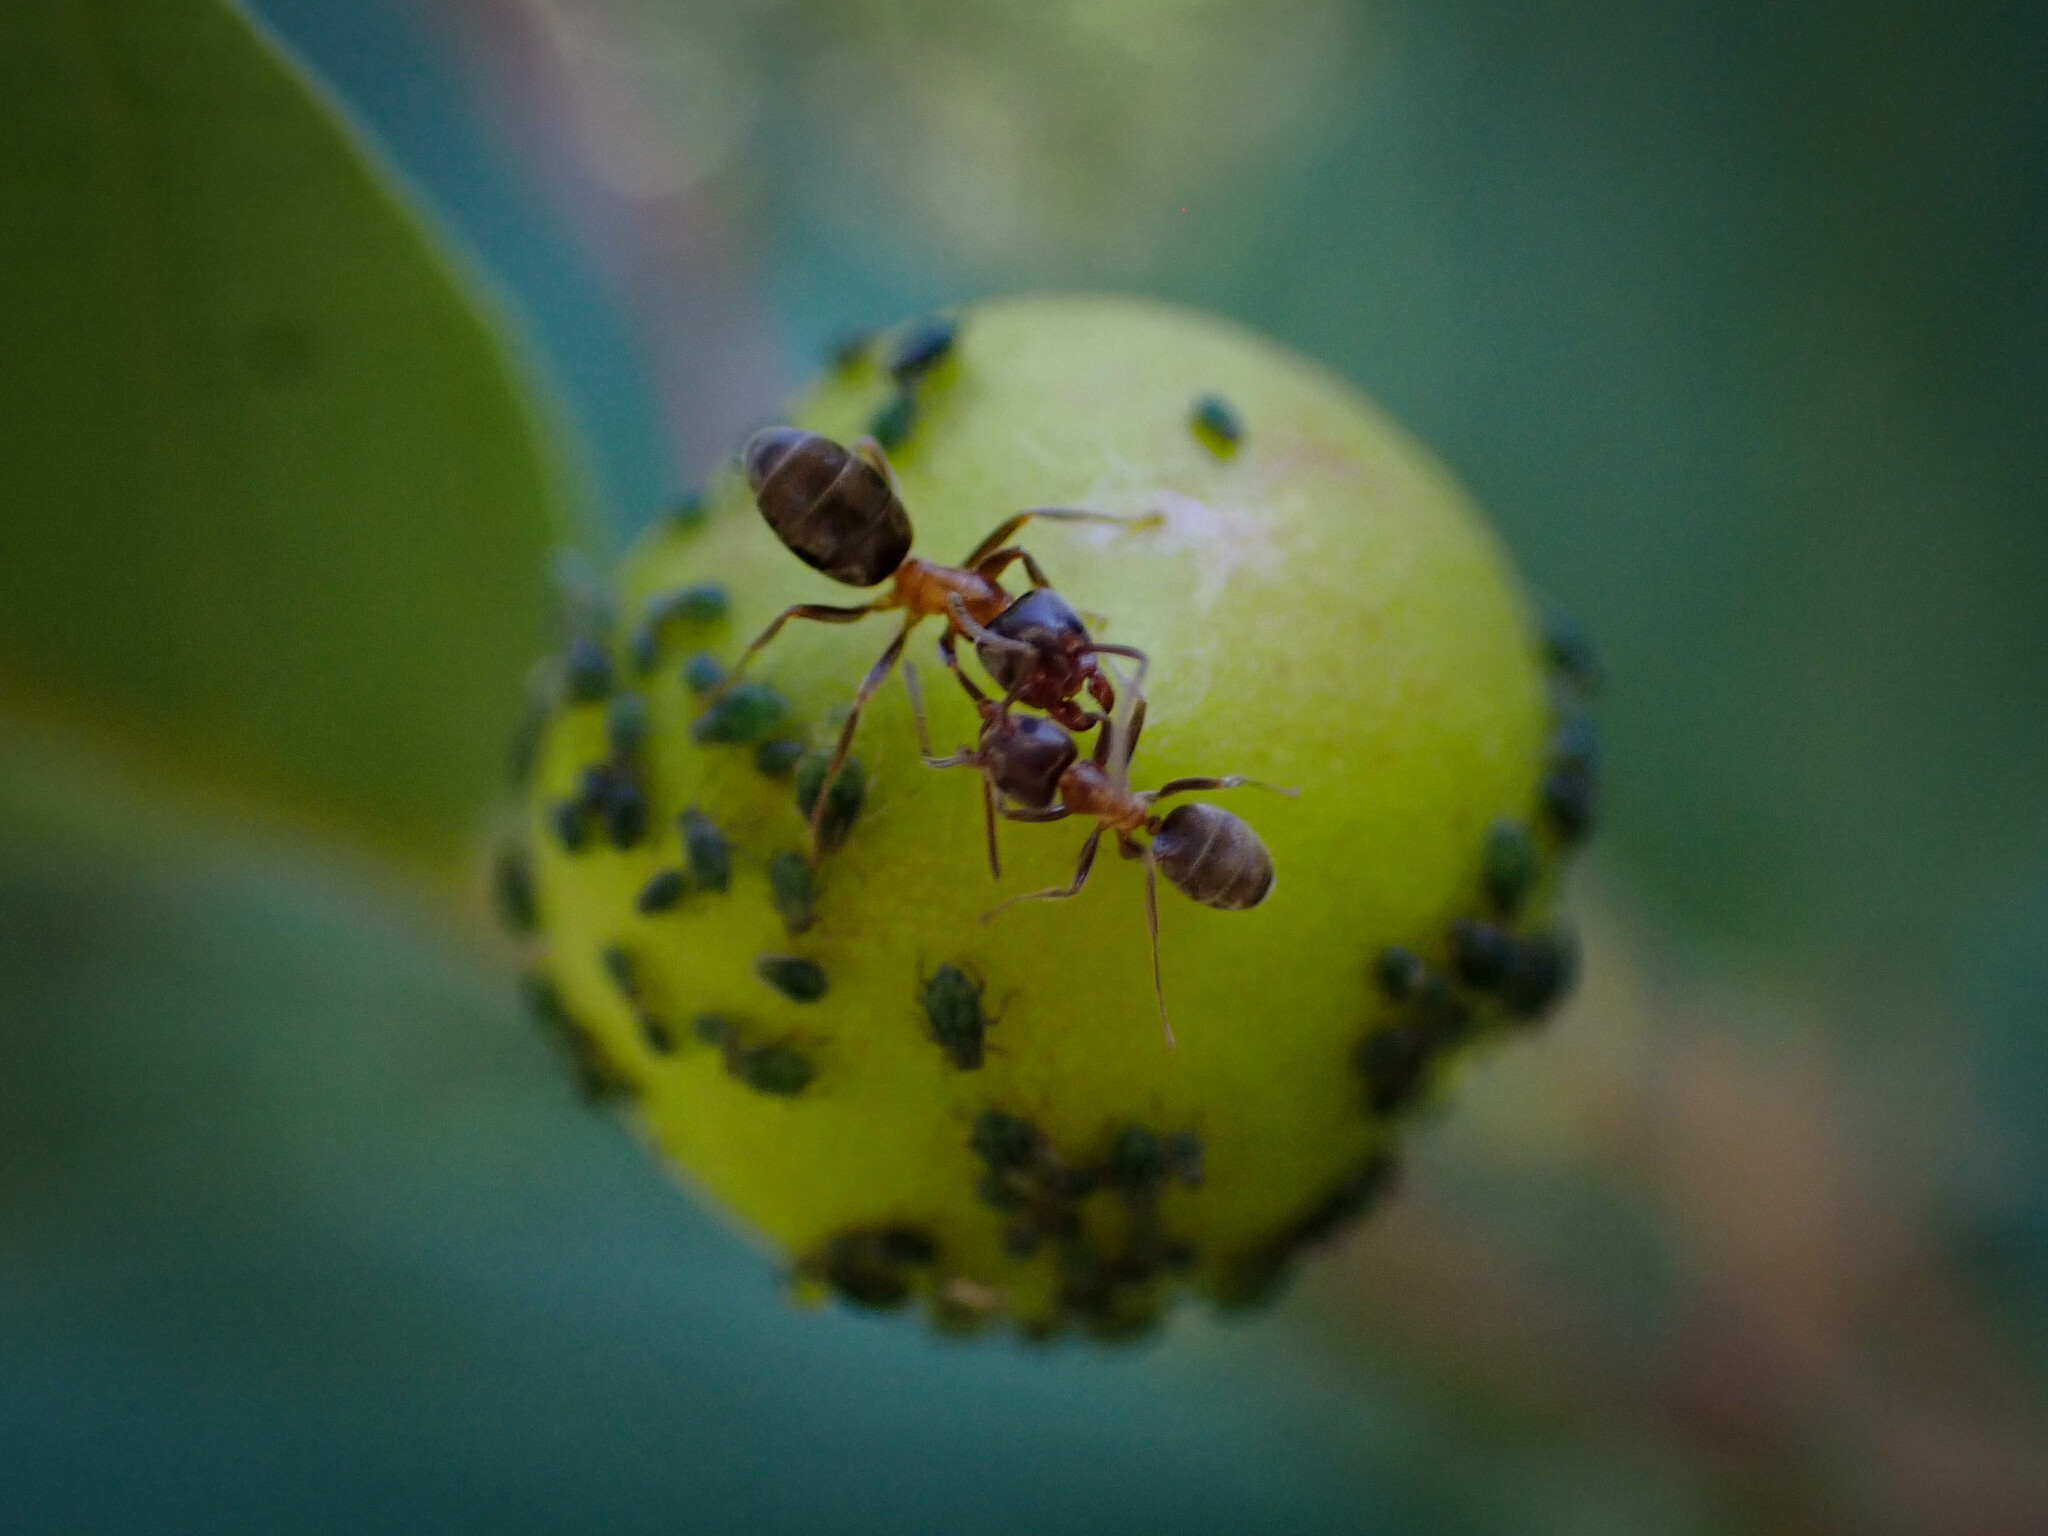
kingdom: Animalia
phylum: Arthropoda
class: Insecta
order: Hymenoptera
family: Formicidae
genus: Liometopum
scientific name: Liometopum occidentale
